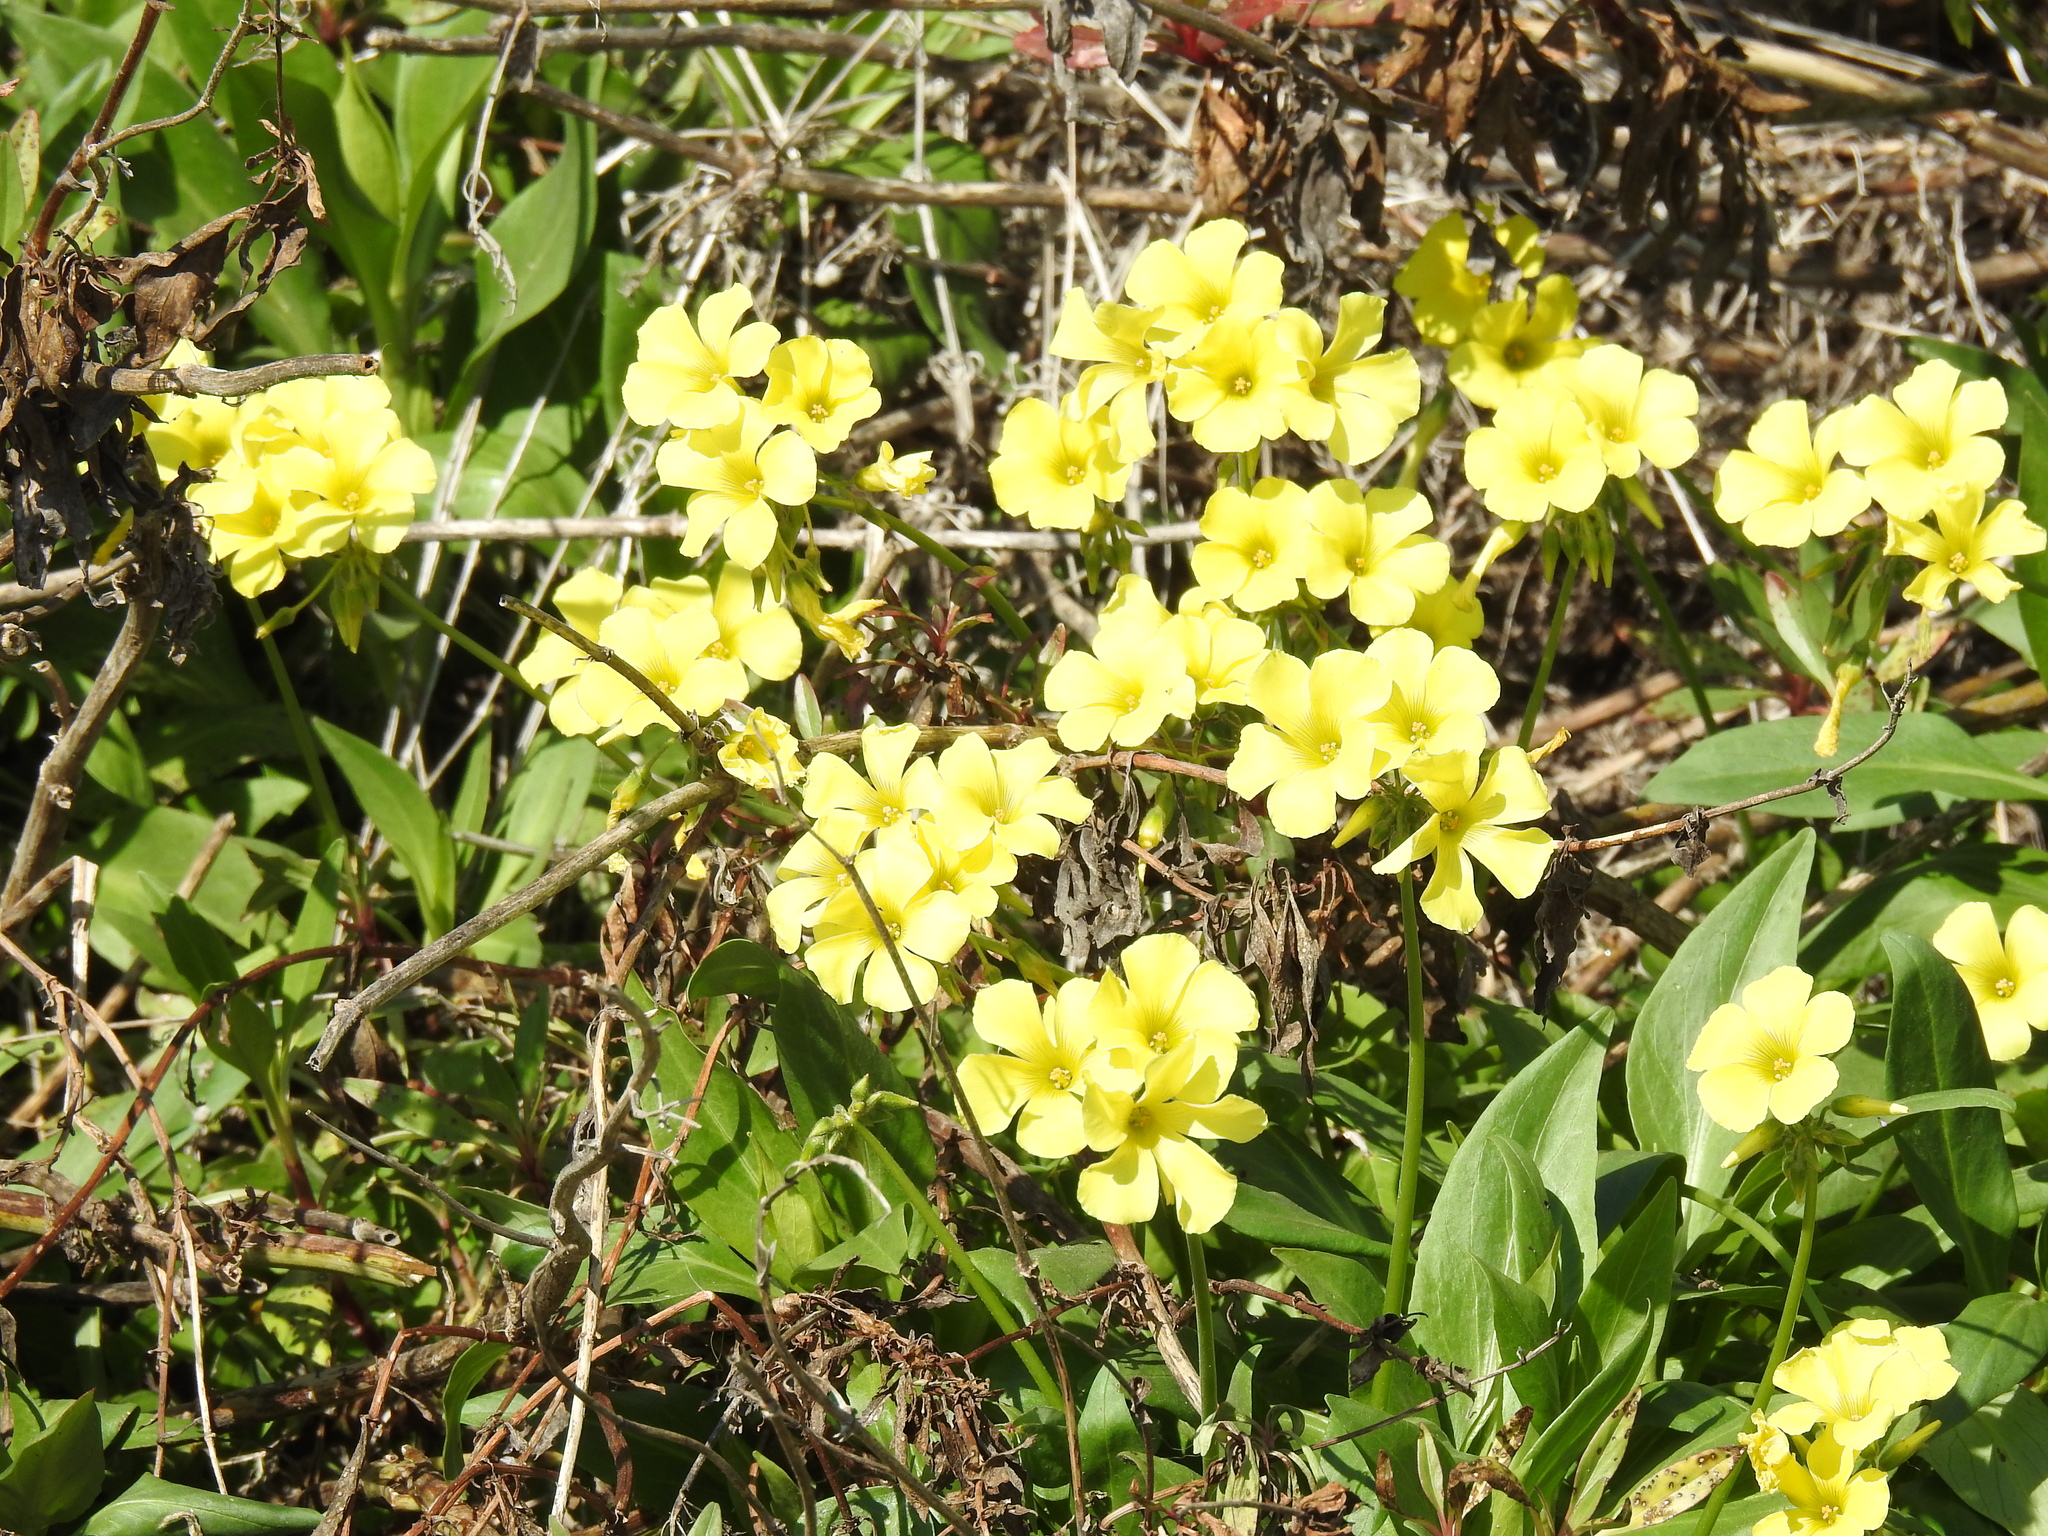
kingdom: Plantae
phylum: Tracheophyta
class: Magnoliopsida
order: Oxalidales
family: Oxalidaceae
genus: Oxalis
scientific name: Oxalis pes-caprae
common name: Bermuda-buttercup
